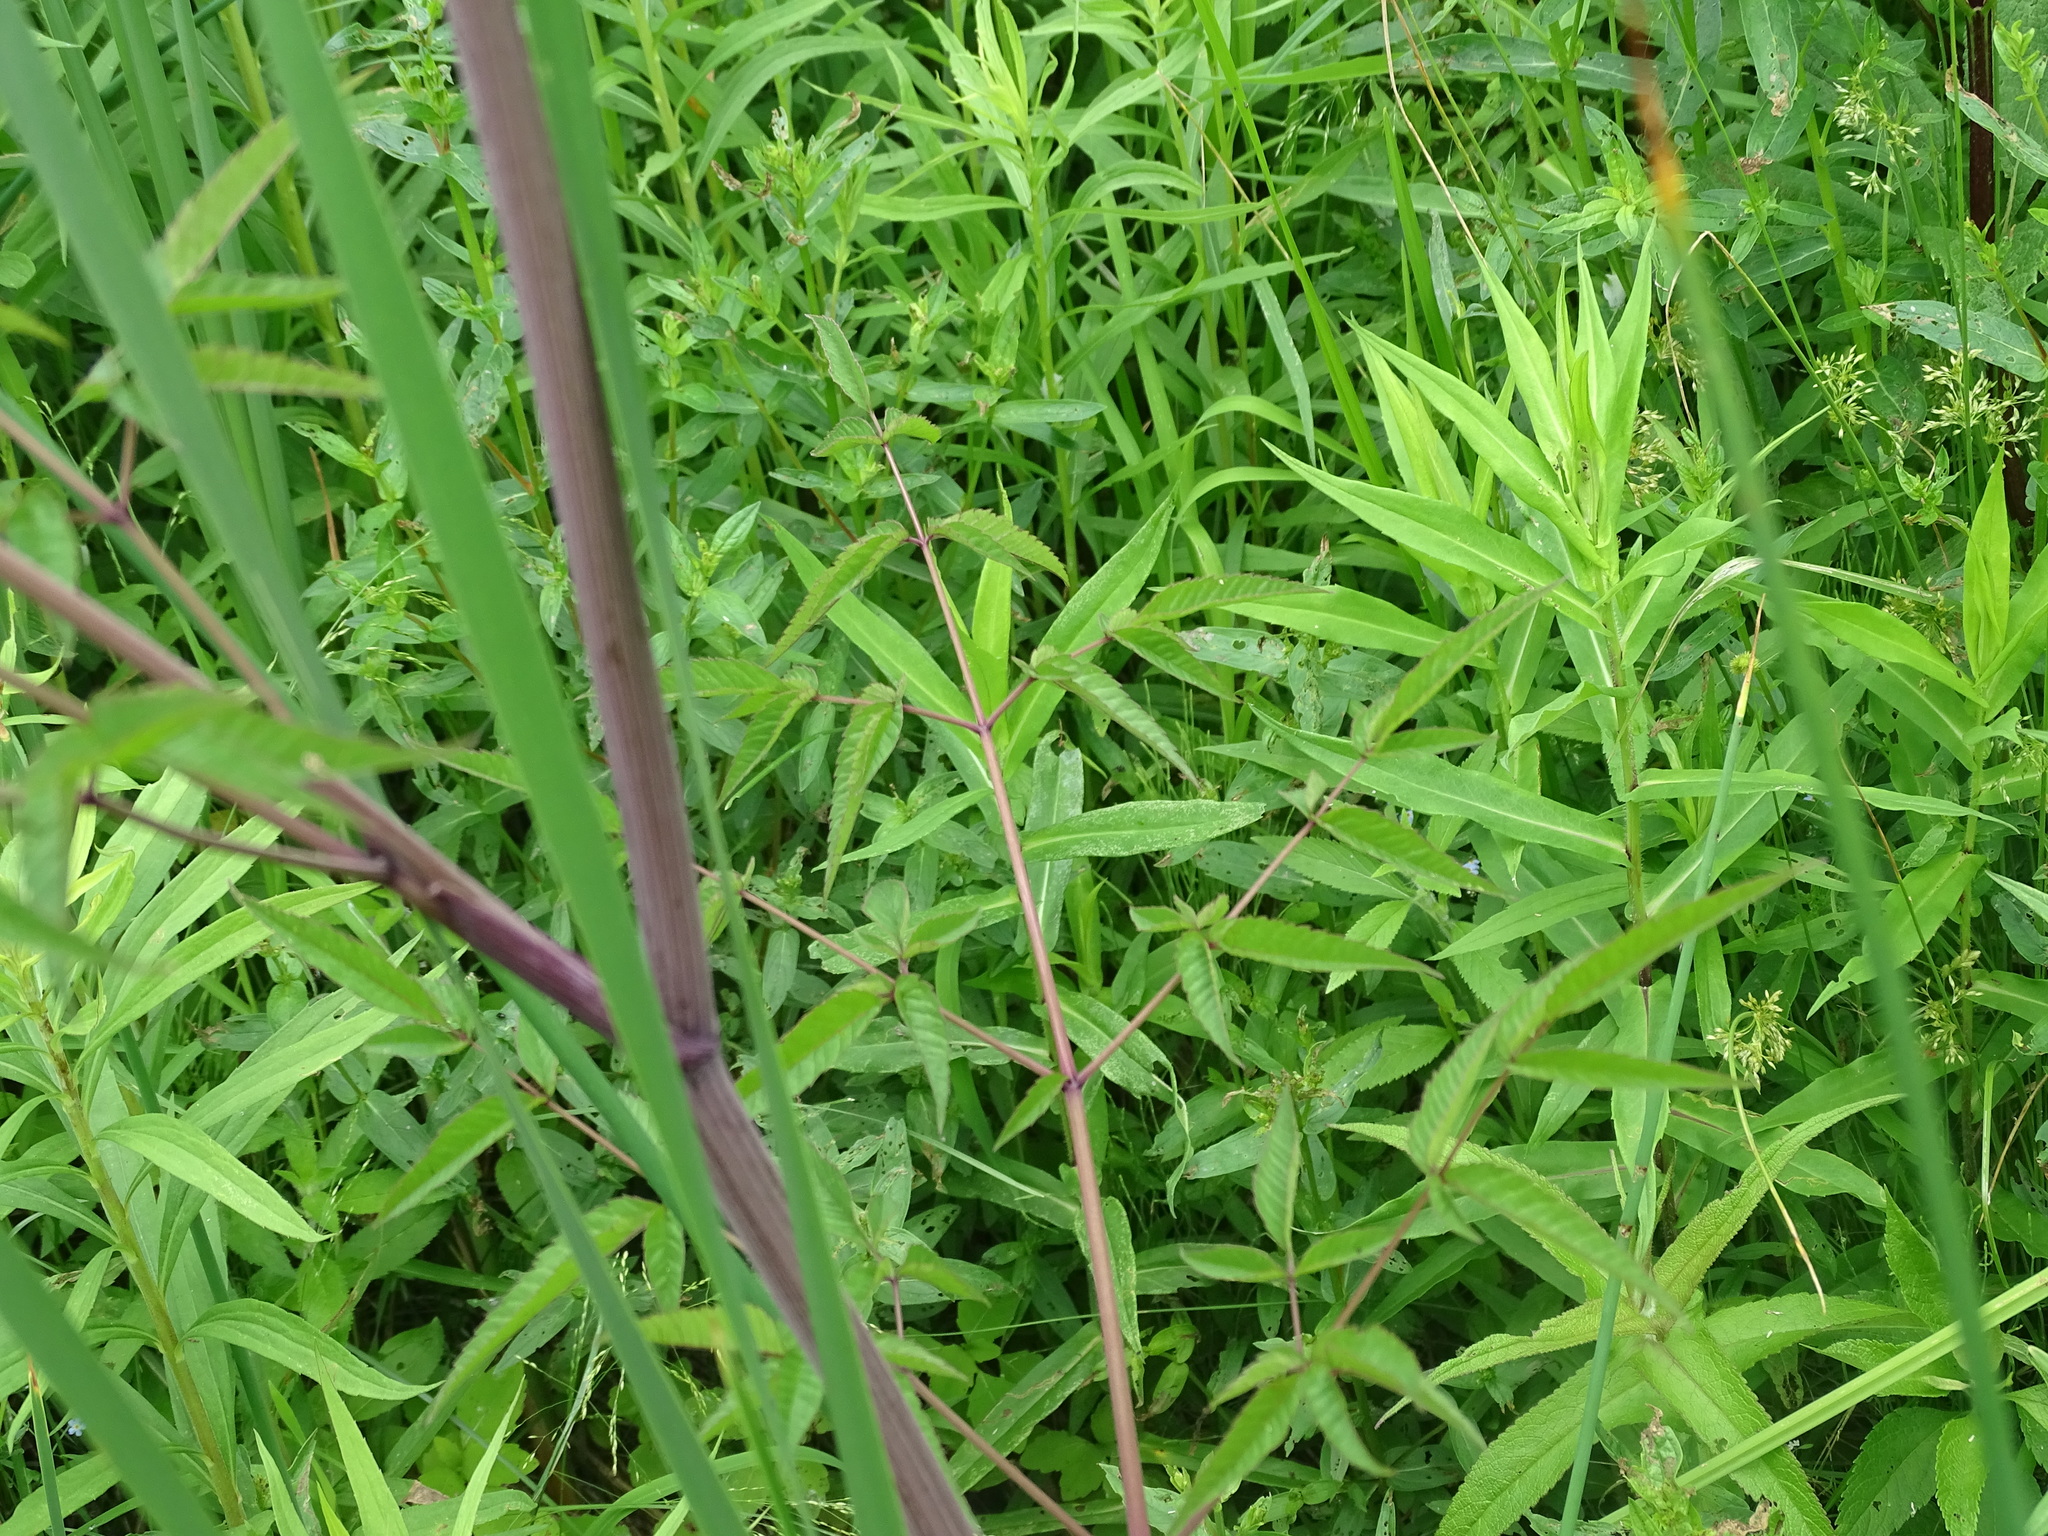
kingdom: Plantae
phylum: Tracheophyta
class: Magnoliopsida
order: Apiales
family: Apiaceae
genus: Cicuta
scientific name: Cicuta maculata
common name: Spotted cowbane
